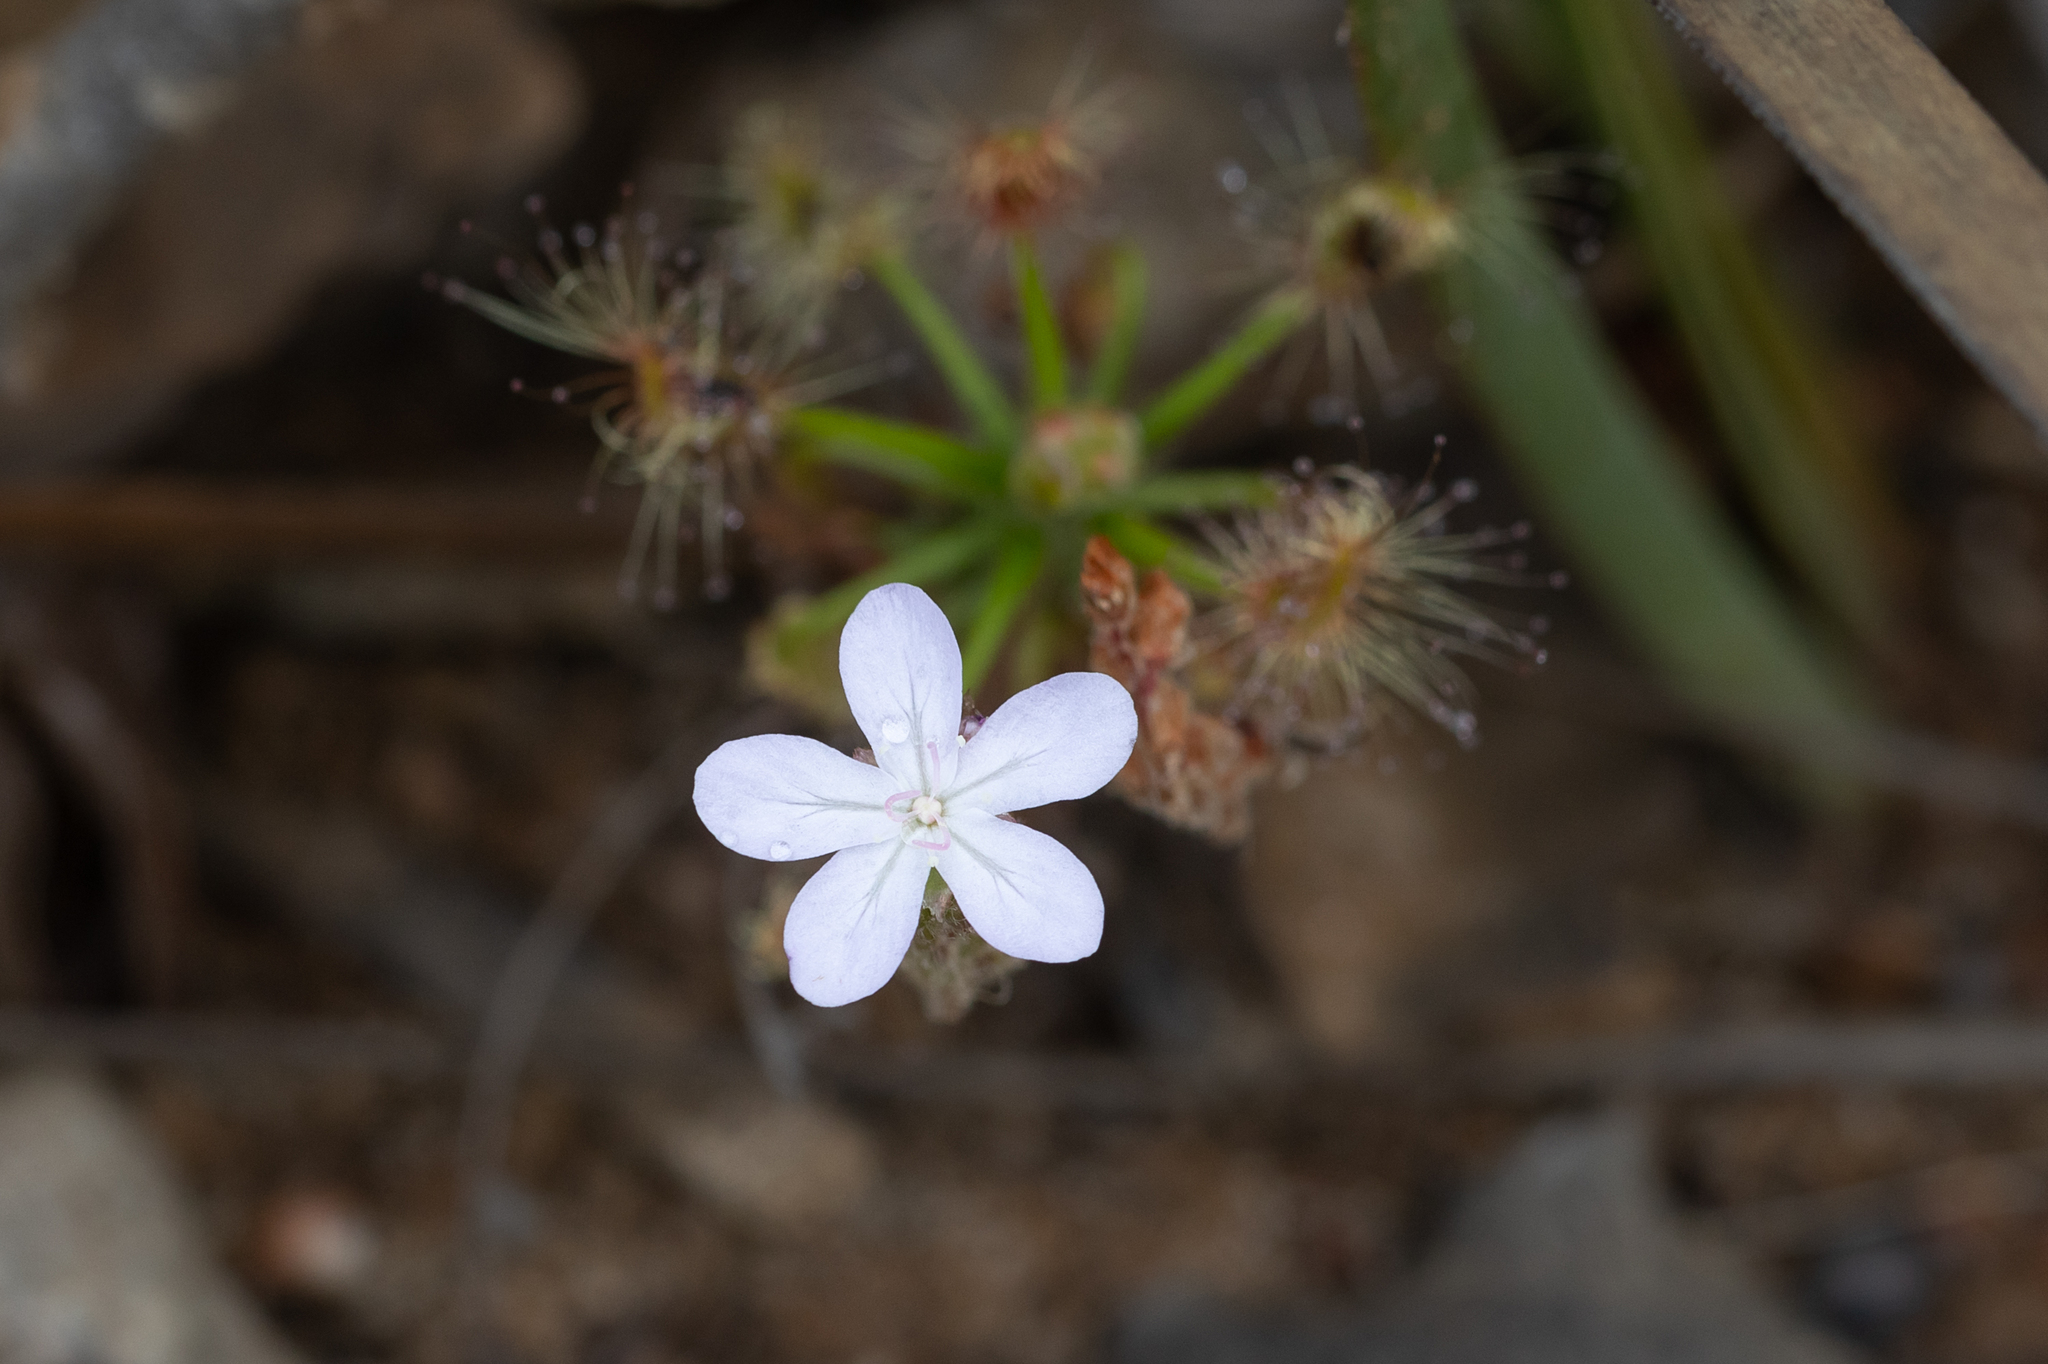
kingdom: Plantae
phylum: Tracheophyta
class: Magnoliopsida
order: Caryophyllales
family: Droseraceae
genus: Drosera
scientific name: Drosera scorpioides
